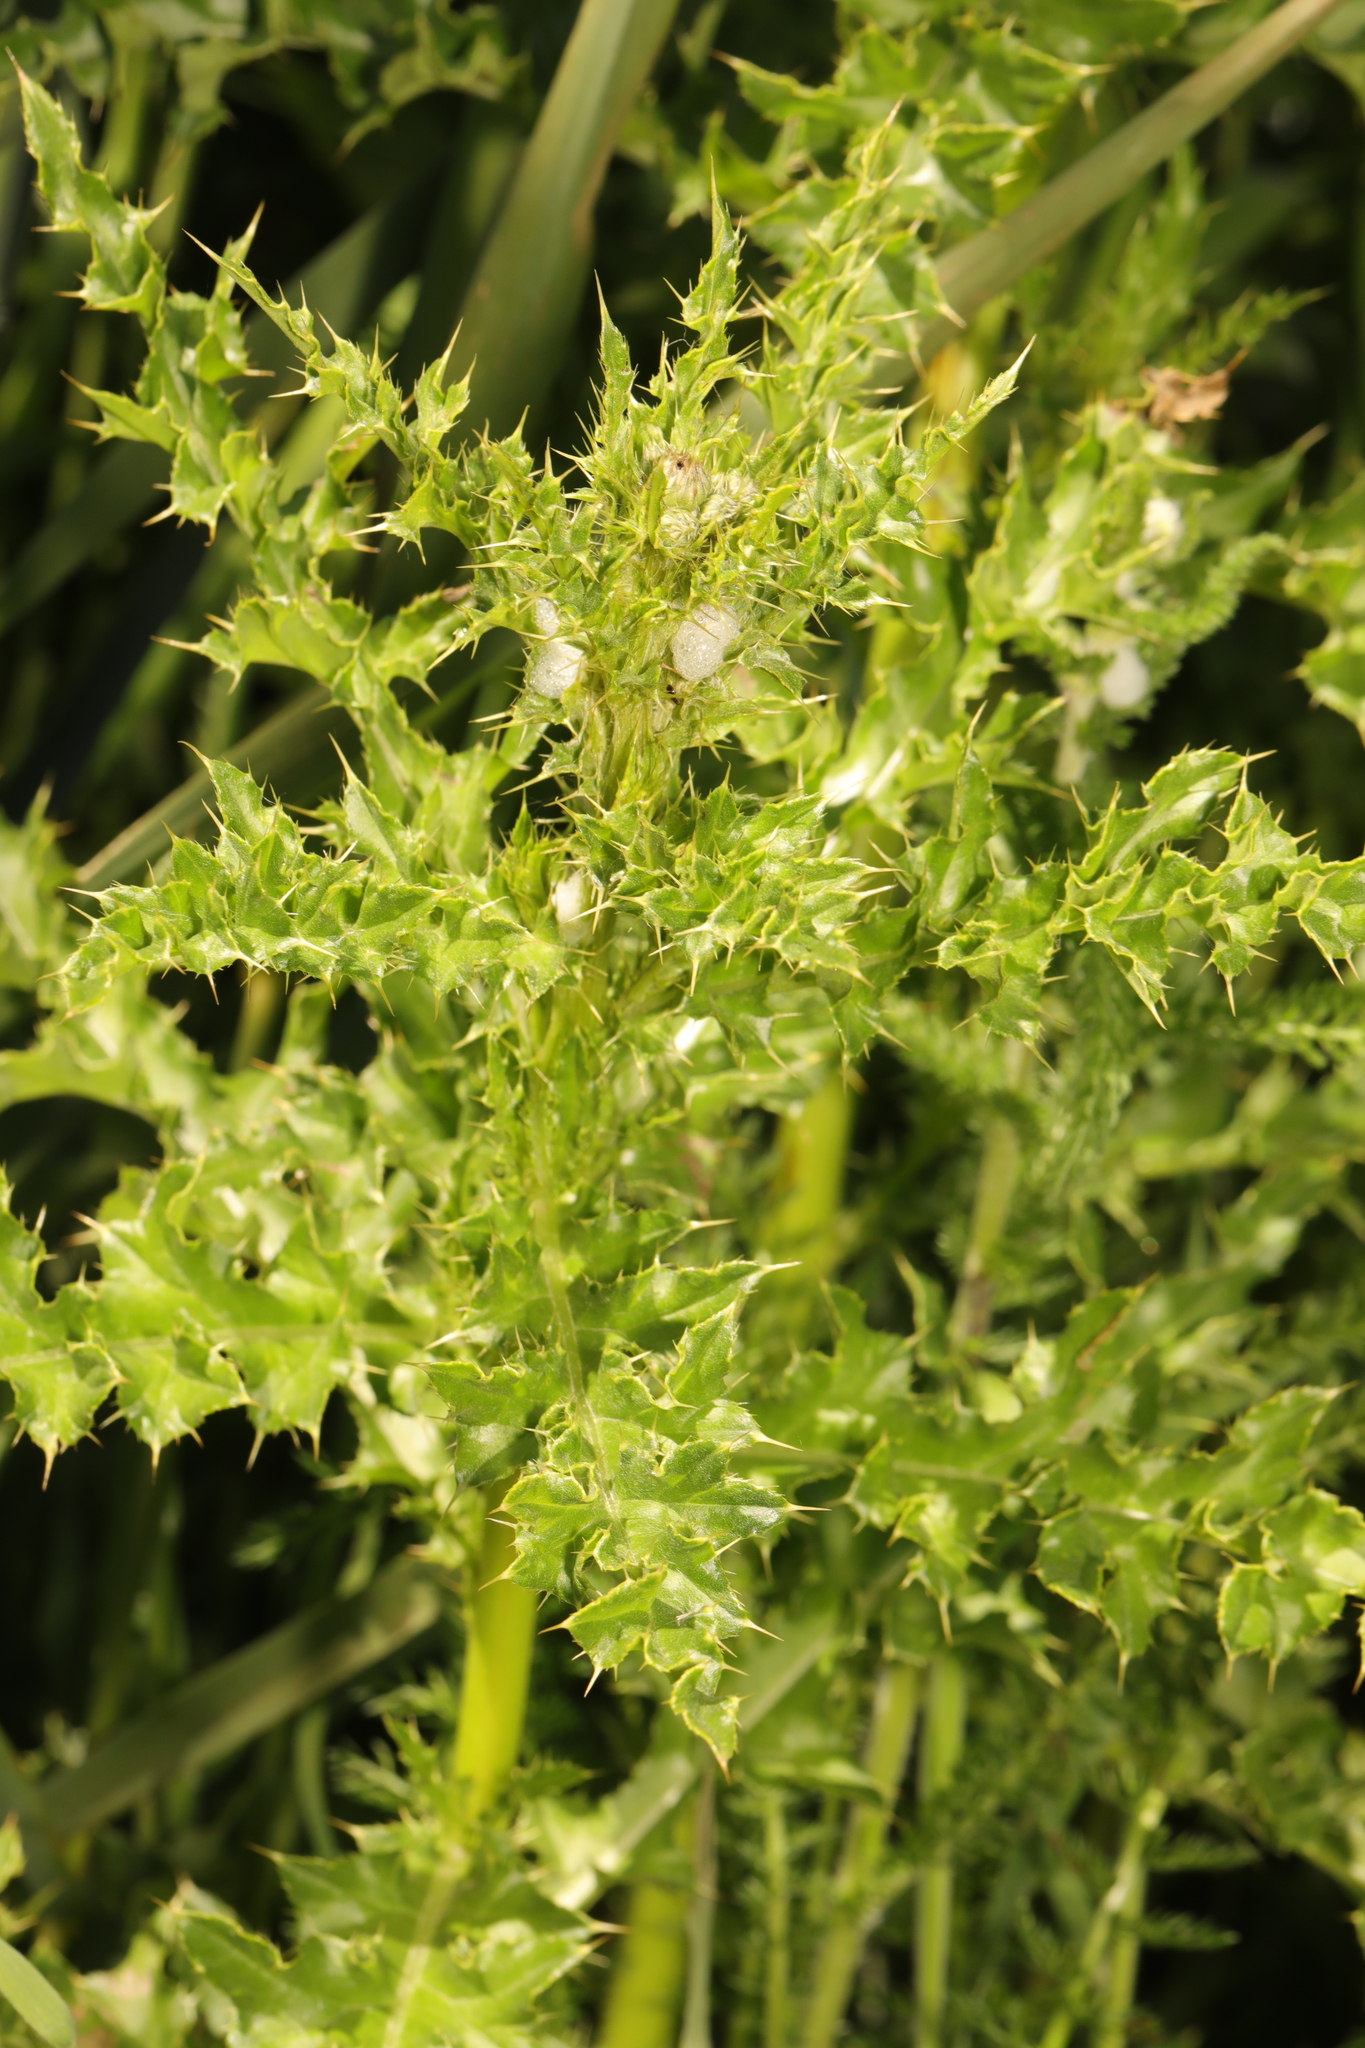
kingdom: Plantae
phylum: Tracheophyta
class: Magnoliopsida
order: Asterales
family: Asteraceae
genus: Cirsium
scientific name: Cirsium arvense
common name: Creeping thistle
